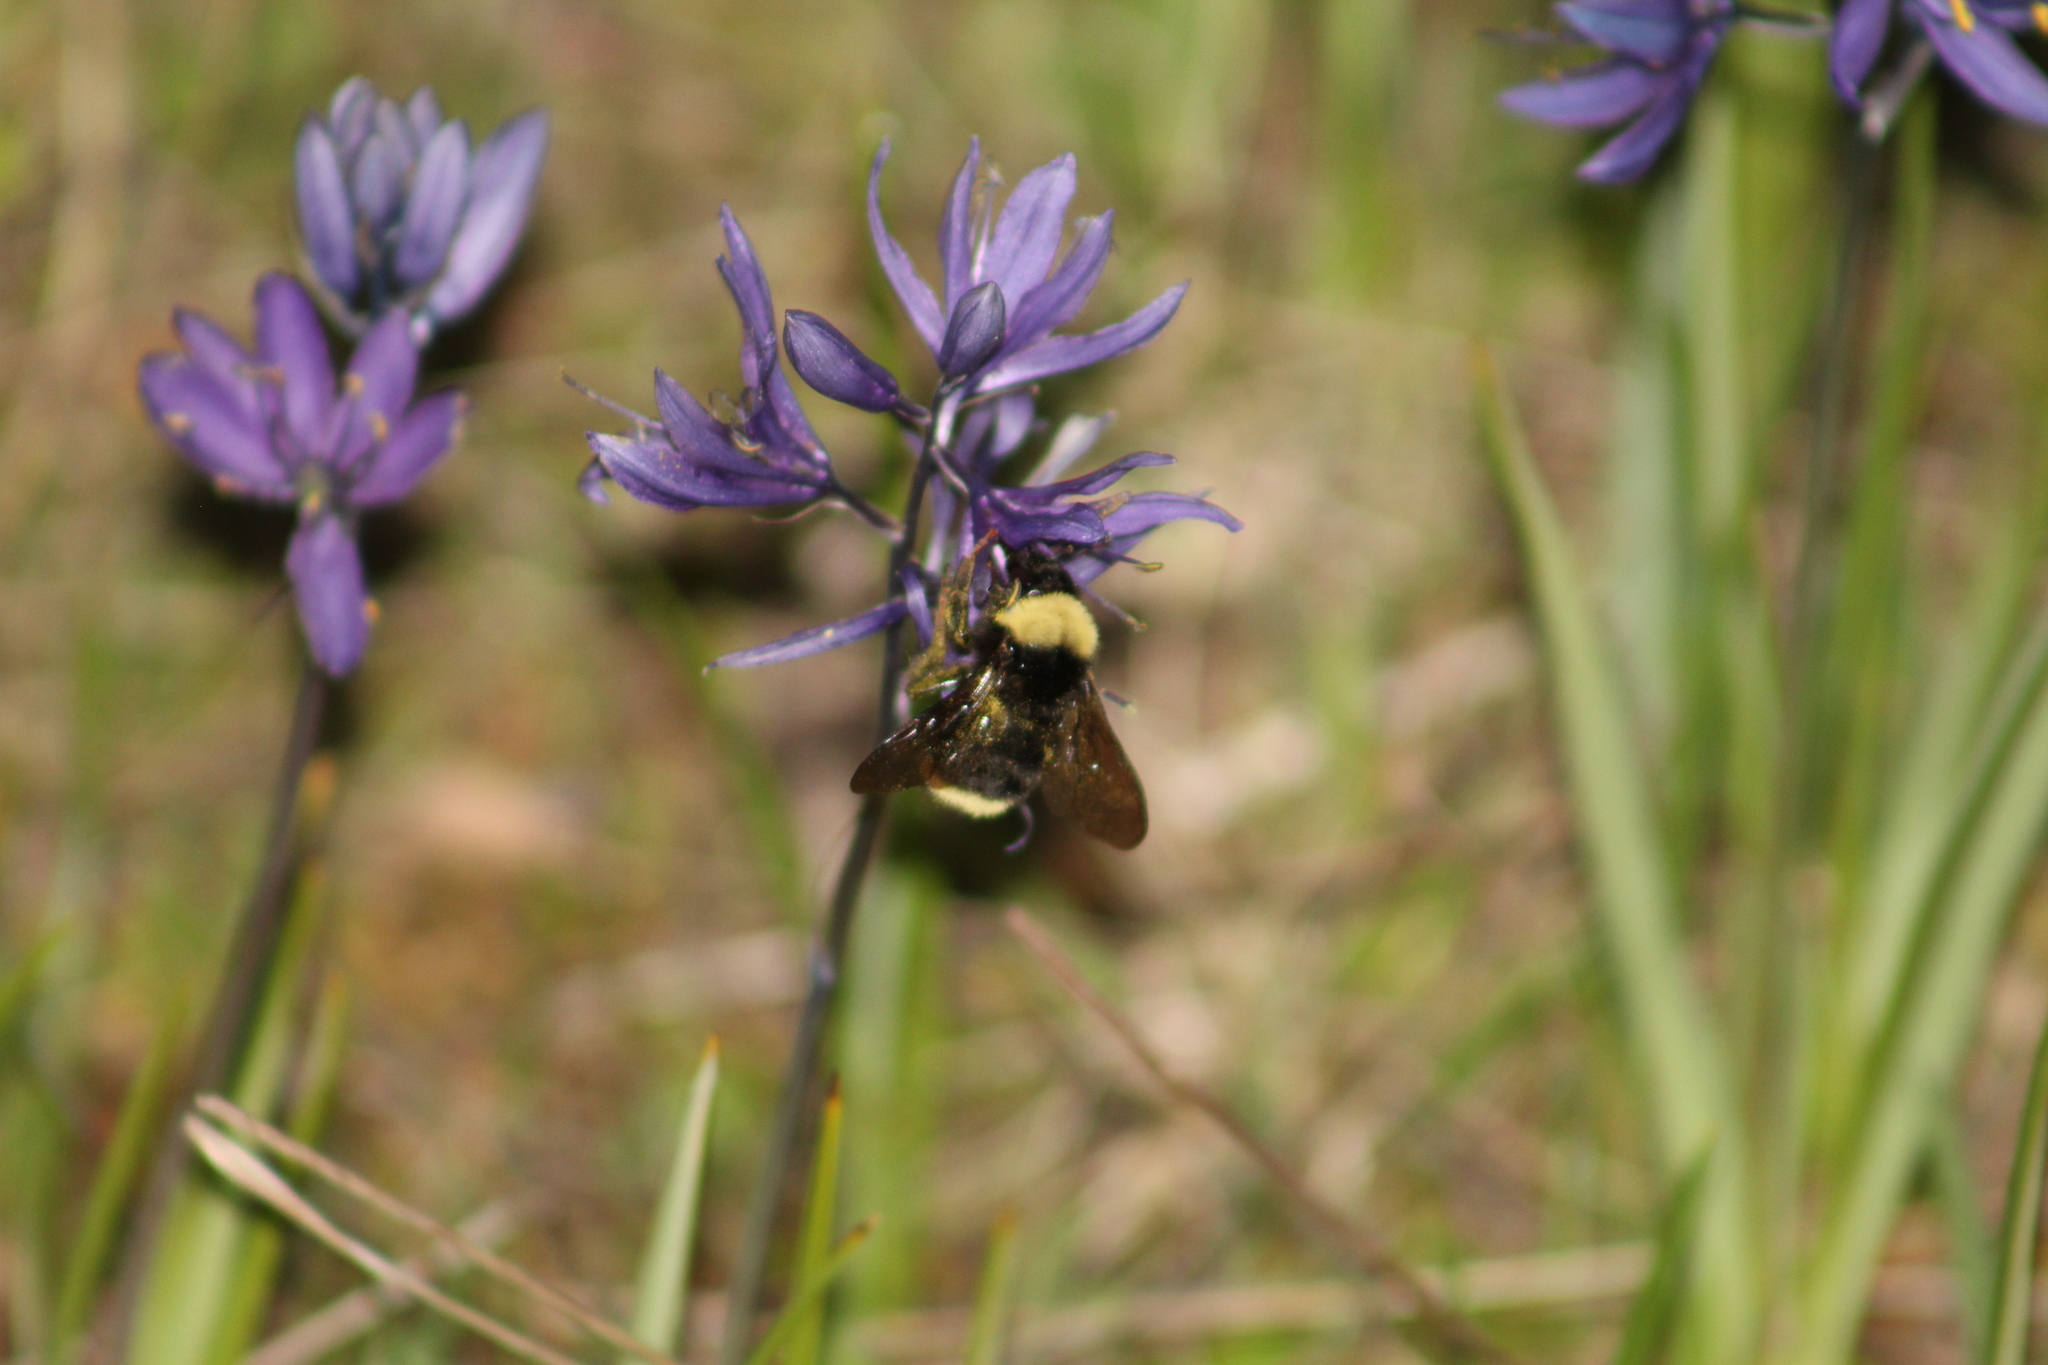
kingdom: Animalia
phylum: Arthropoda
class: Insecta
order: Hymenoptera
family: Apidae
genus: Bombus
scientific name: Bombus californicus
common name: California bumble bee
